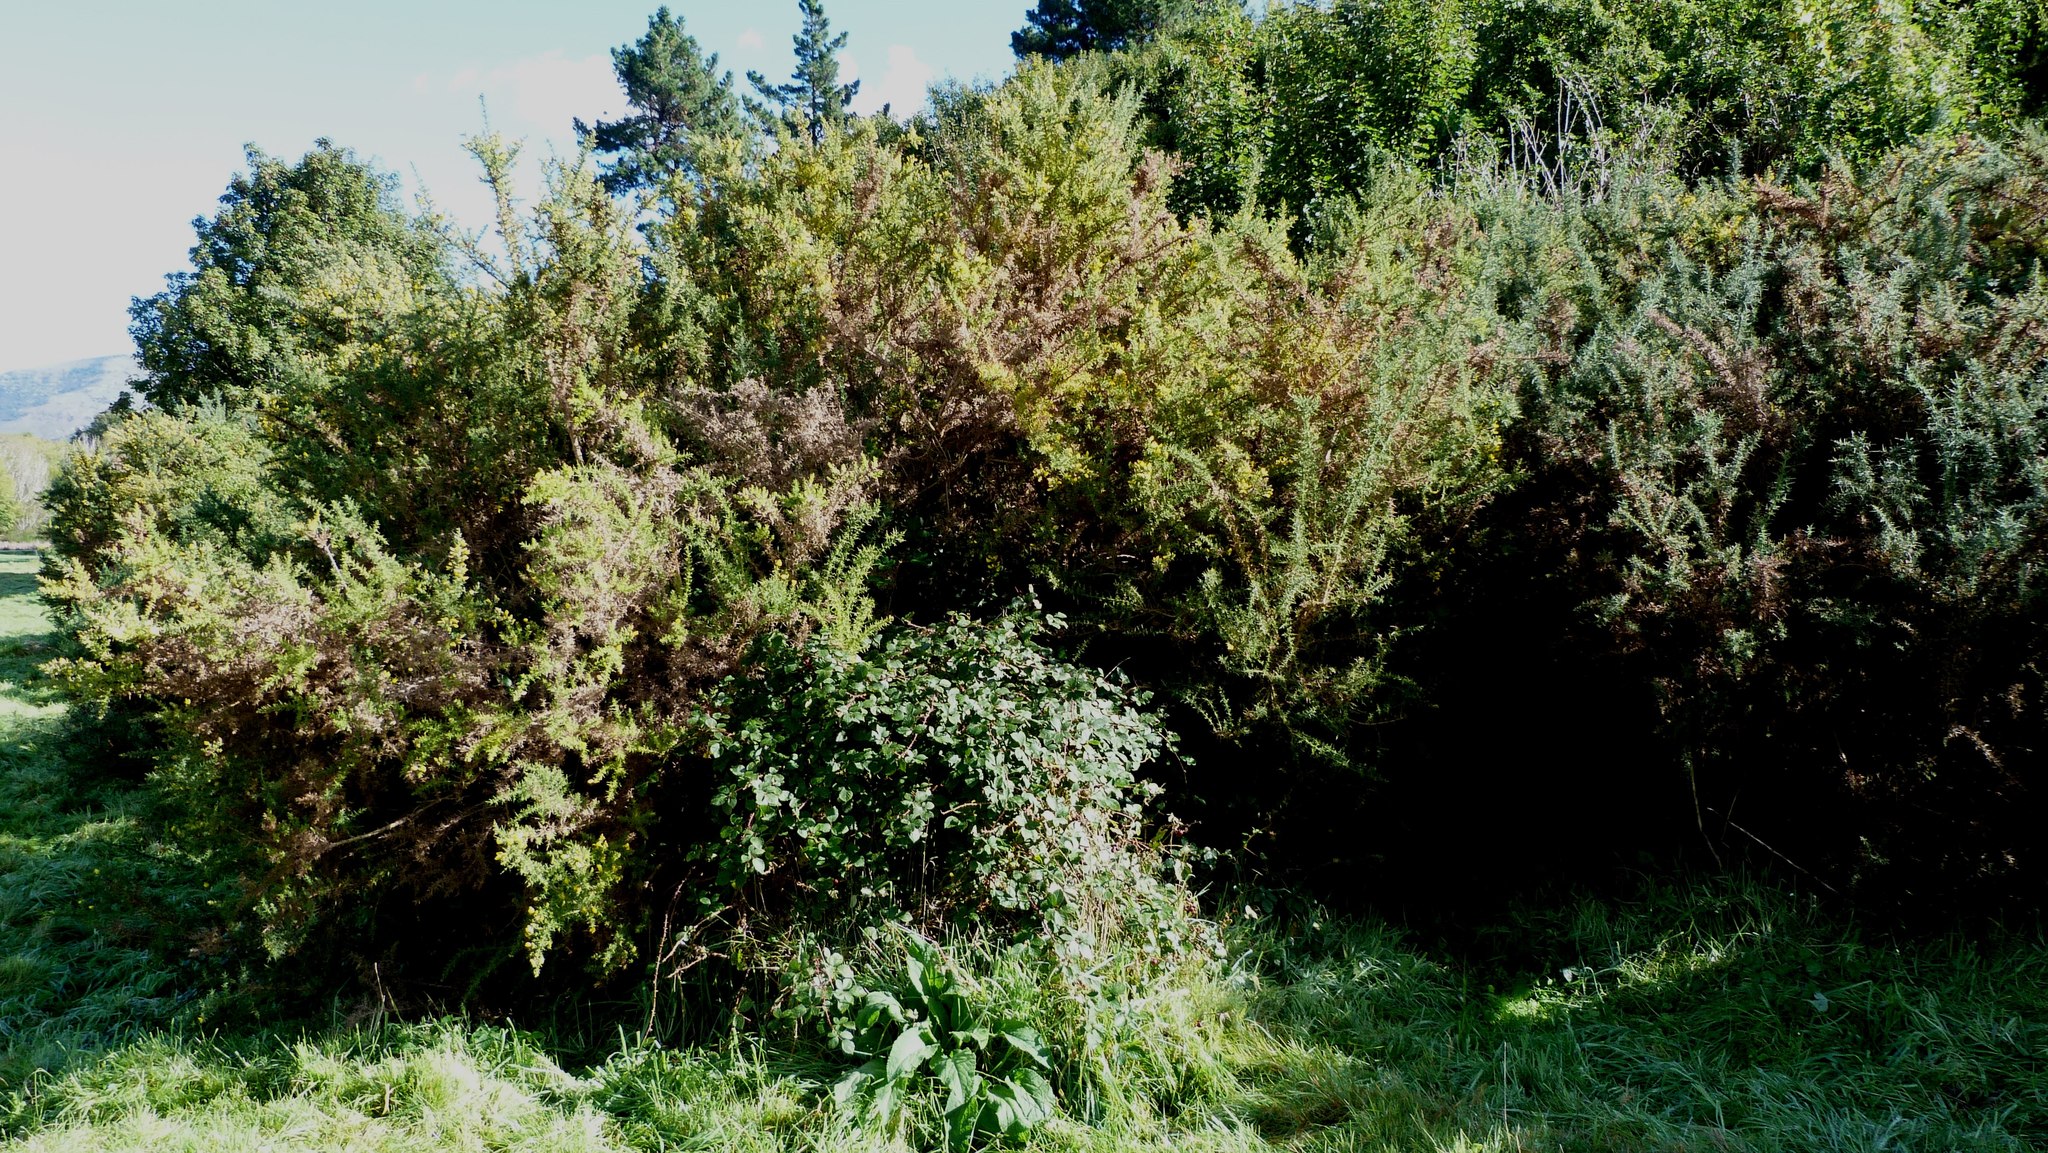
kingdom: Plantae
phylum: Tracheophyta
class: Magnoliopsida
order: Fabales
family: Fabaceae
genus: Ulex
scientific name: Ulex europaeus
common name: Common gorse
